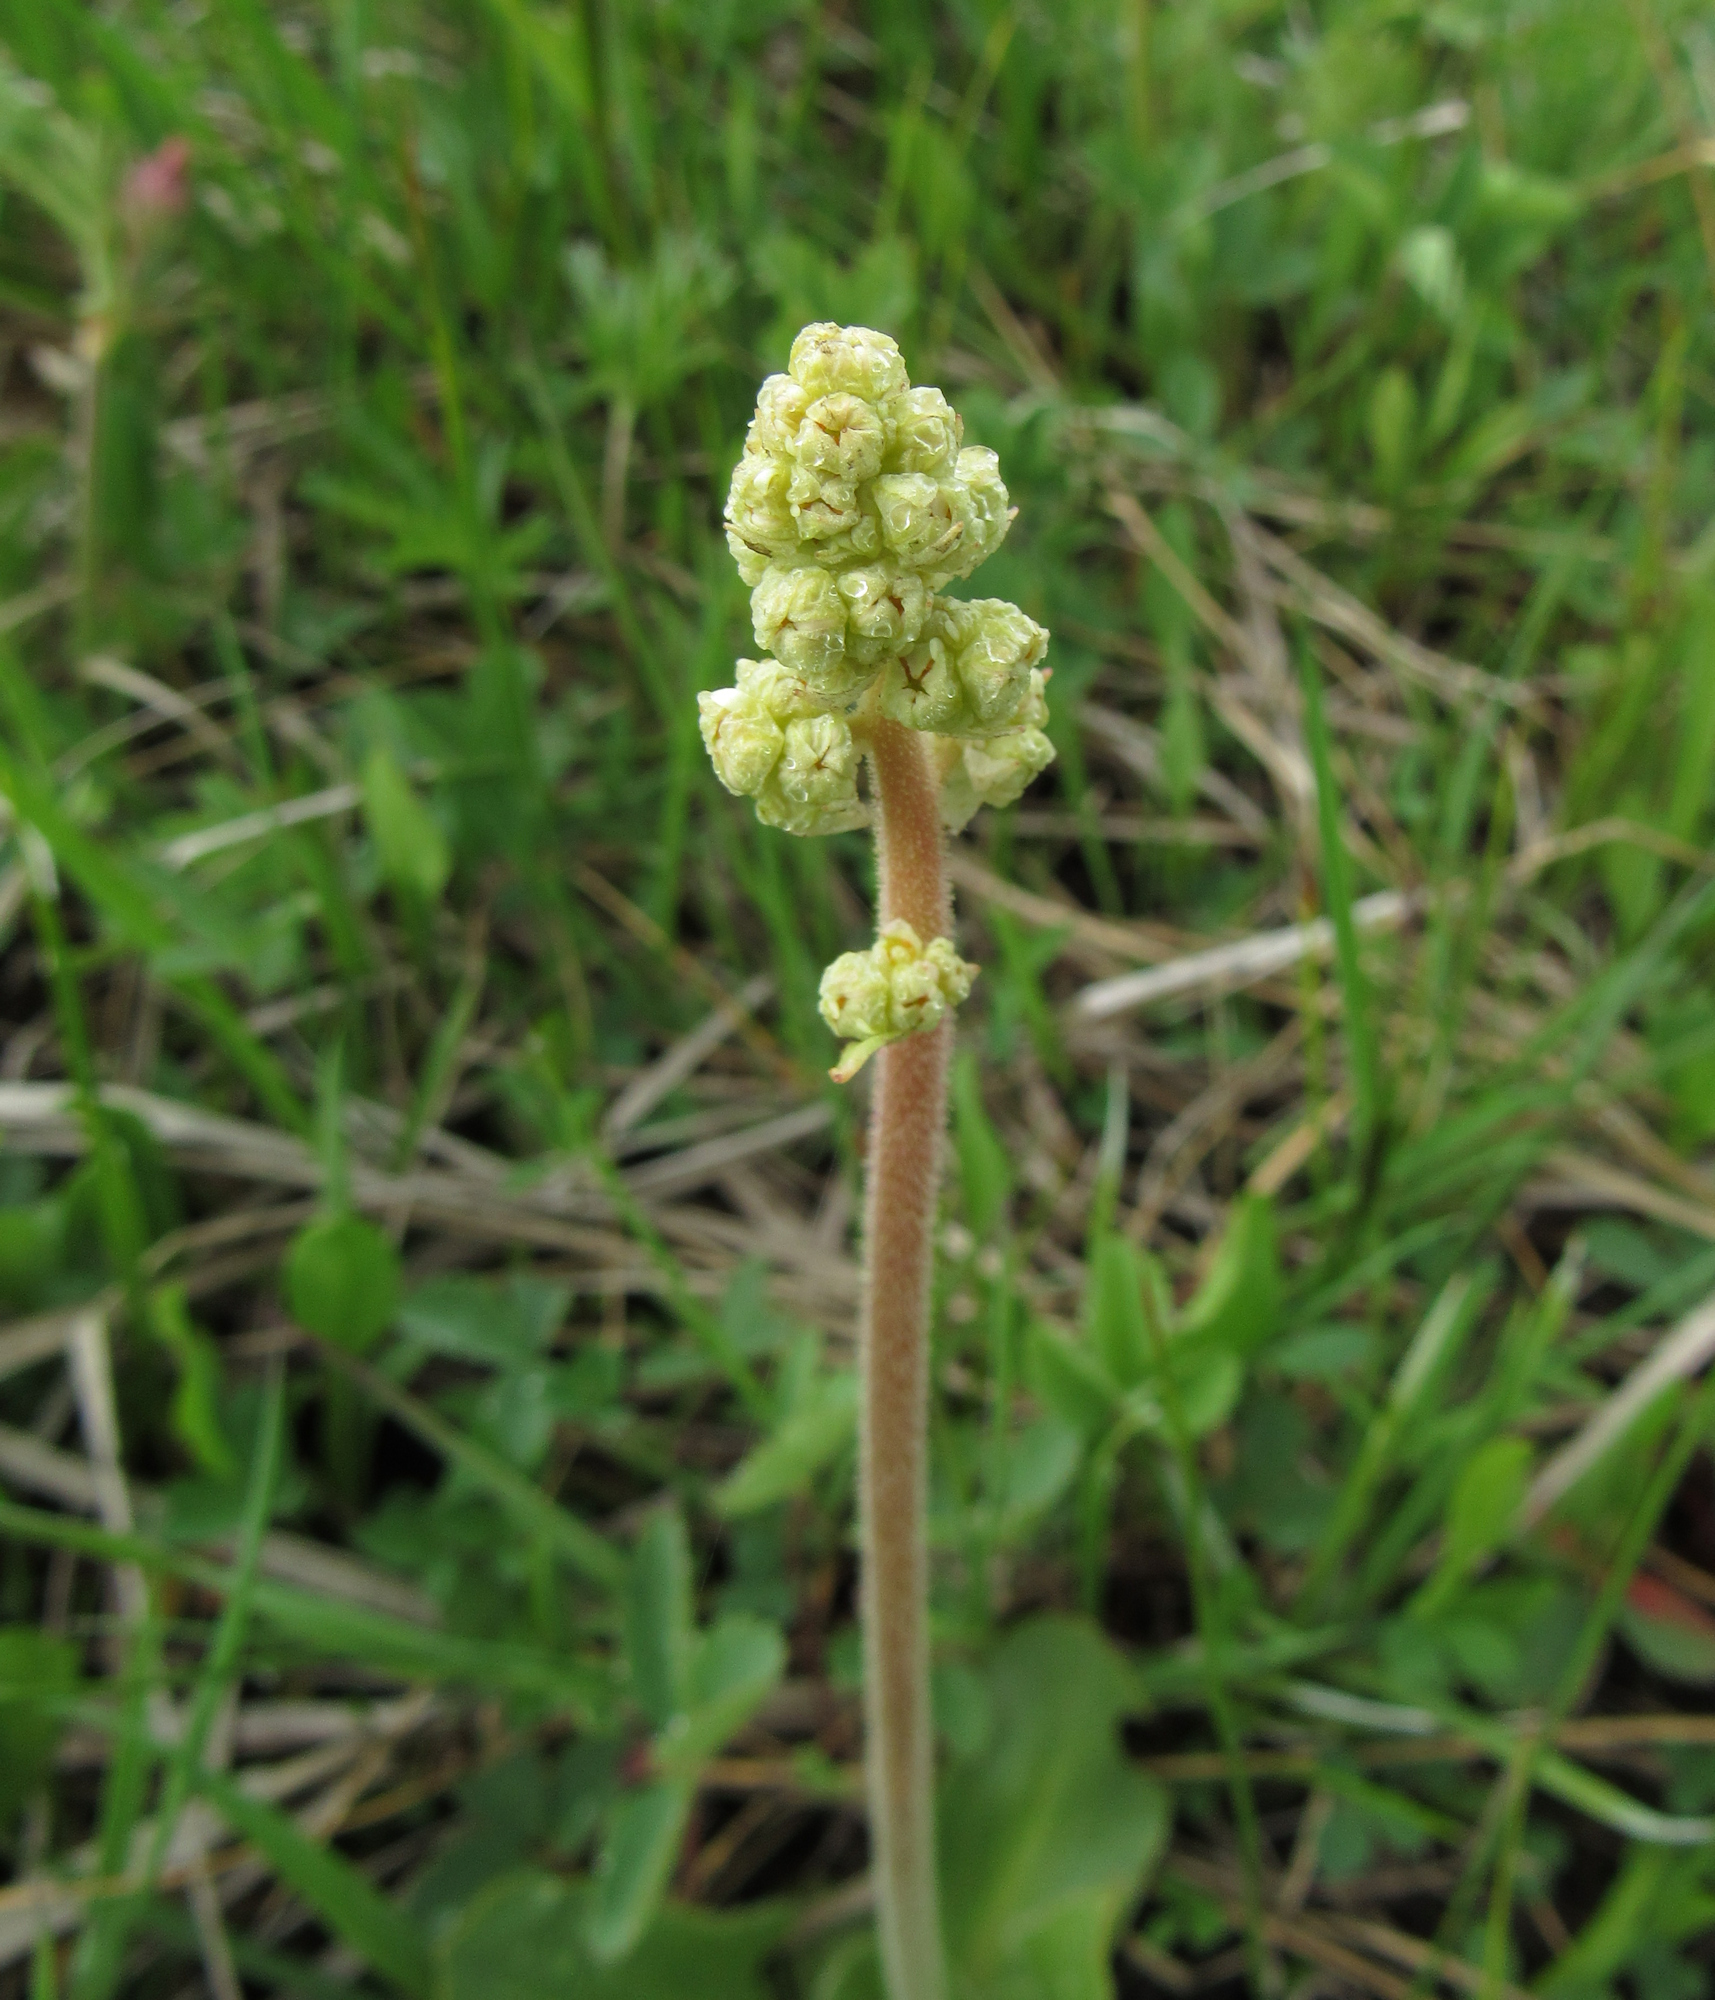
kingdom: Plantae
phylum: Tracheophyta
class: Magnoliopsida
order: Saxifragales
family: Saxifragaceae
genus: Micranthes
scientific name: Micranthes oregana
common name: Bog saxifrage
